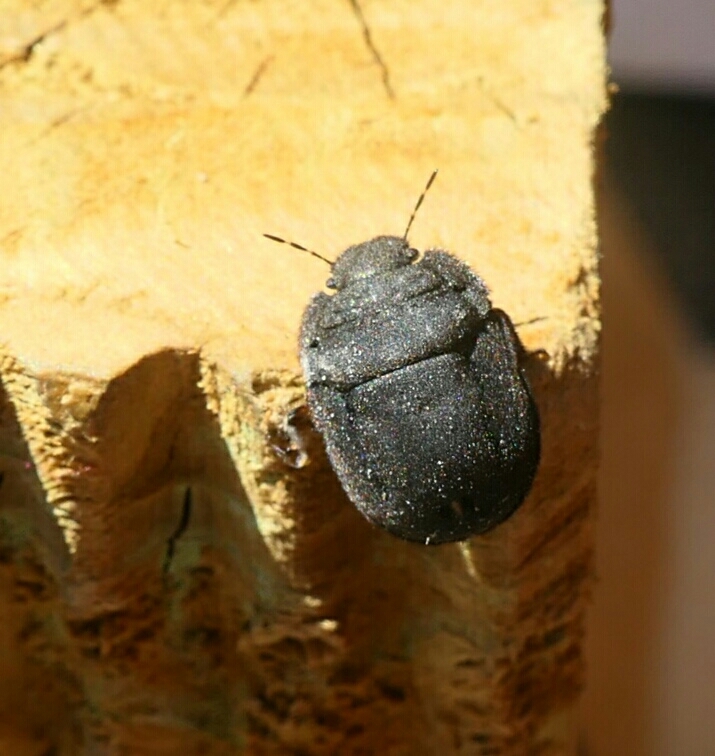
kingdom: Animalia
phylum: Arthropoda
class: Insecta
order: Hemiptera
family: Scutelleridae
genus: Odontoscelis
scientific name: Odontoscelis fuliginosa
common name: Greater streaked shieldbug
